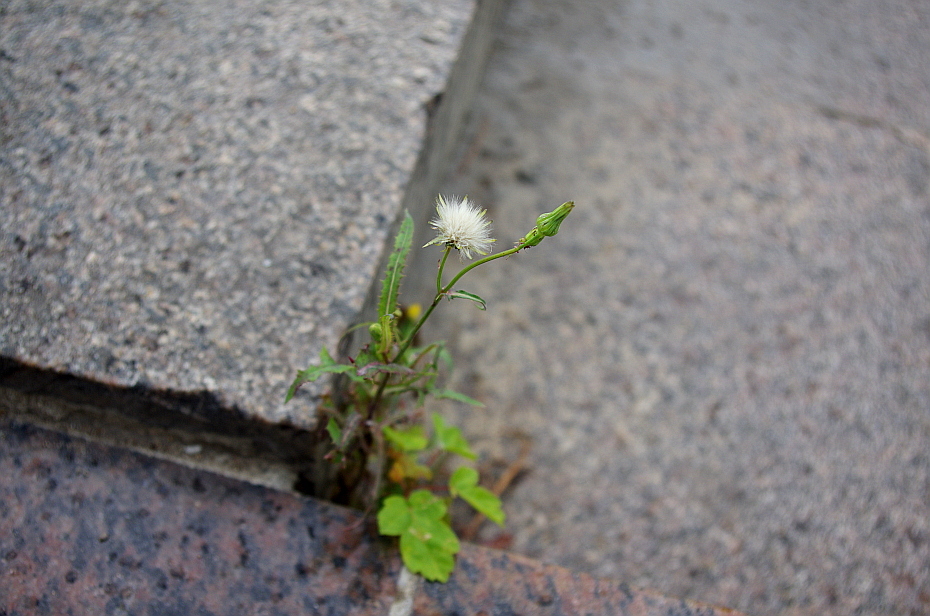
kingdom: Plantae
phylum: Tracheophyta
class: Magnoliopsida
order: Asterales
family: Asteraceae
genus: Sonchus
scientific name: Sonchus oleraceus
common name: Common sowthistle
